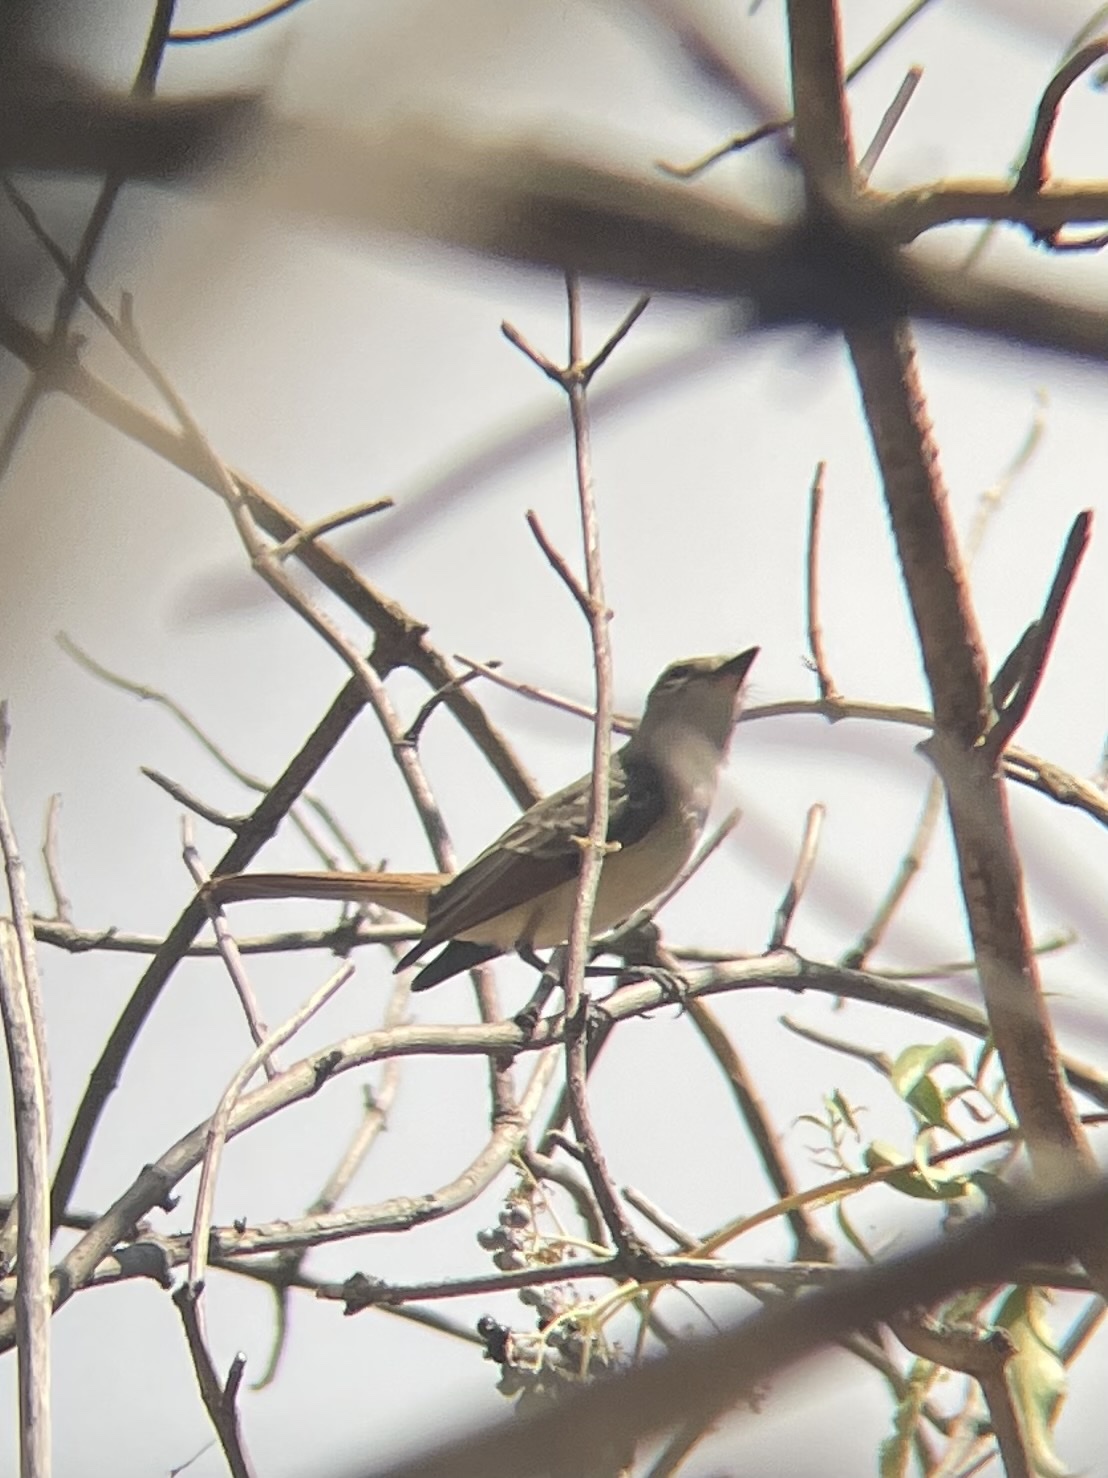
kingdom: Animalia
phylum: Chordata
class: Aves
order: Passeriformes
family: Tyrannidae
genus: Myiarchus
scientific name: Myiarchus cinerascens
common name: Ash-throated flycatcher
